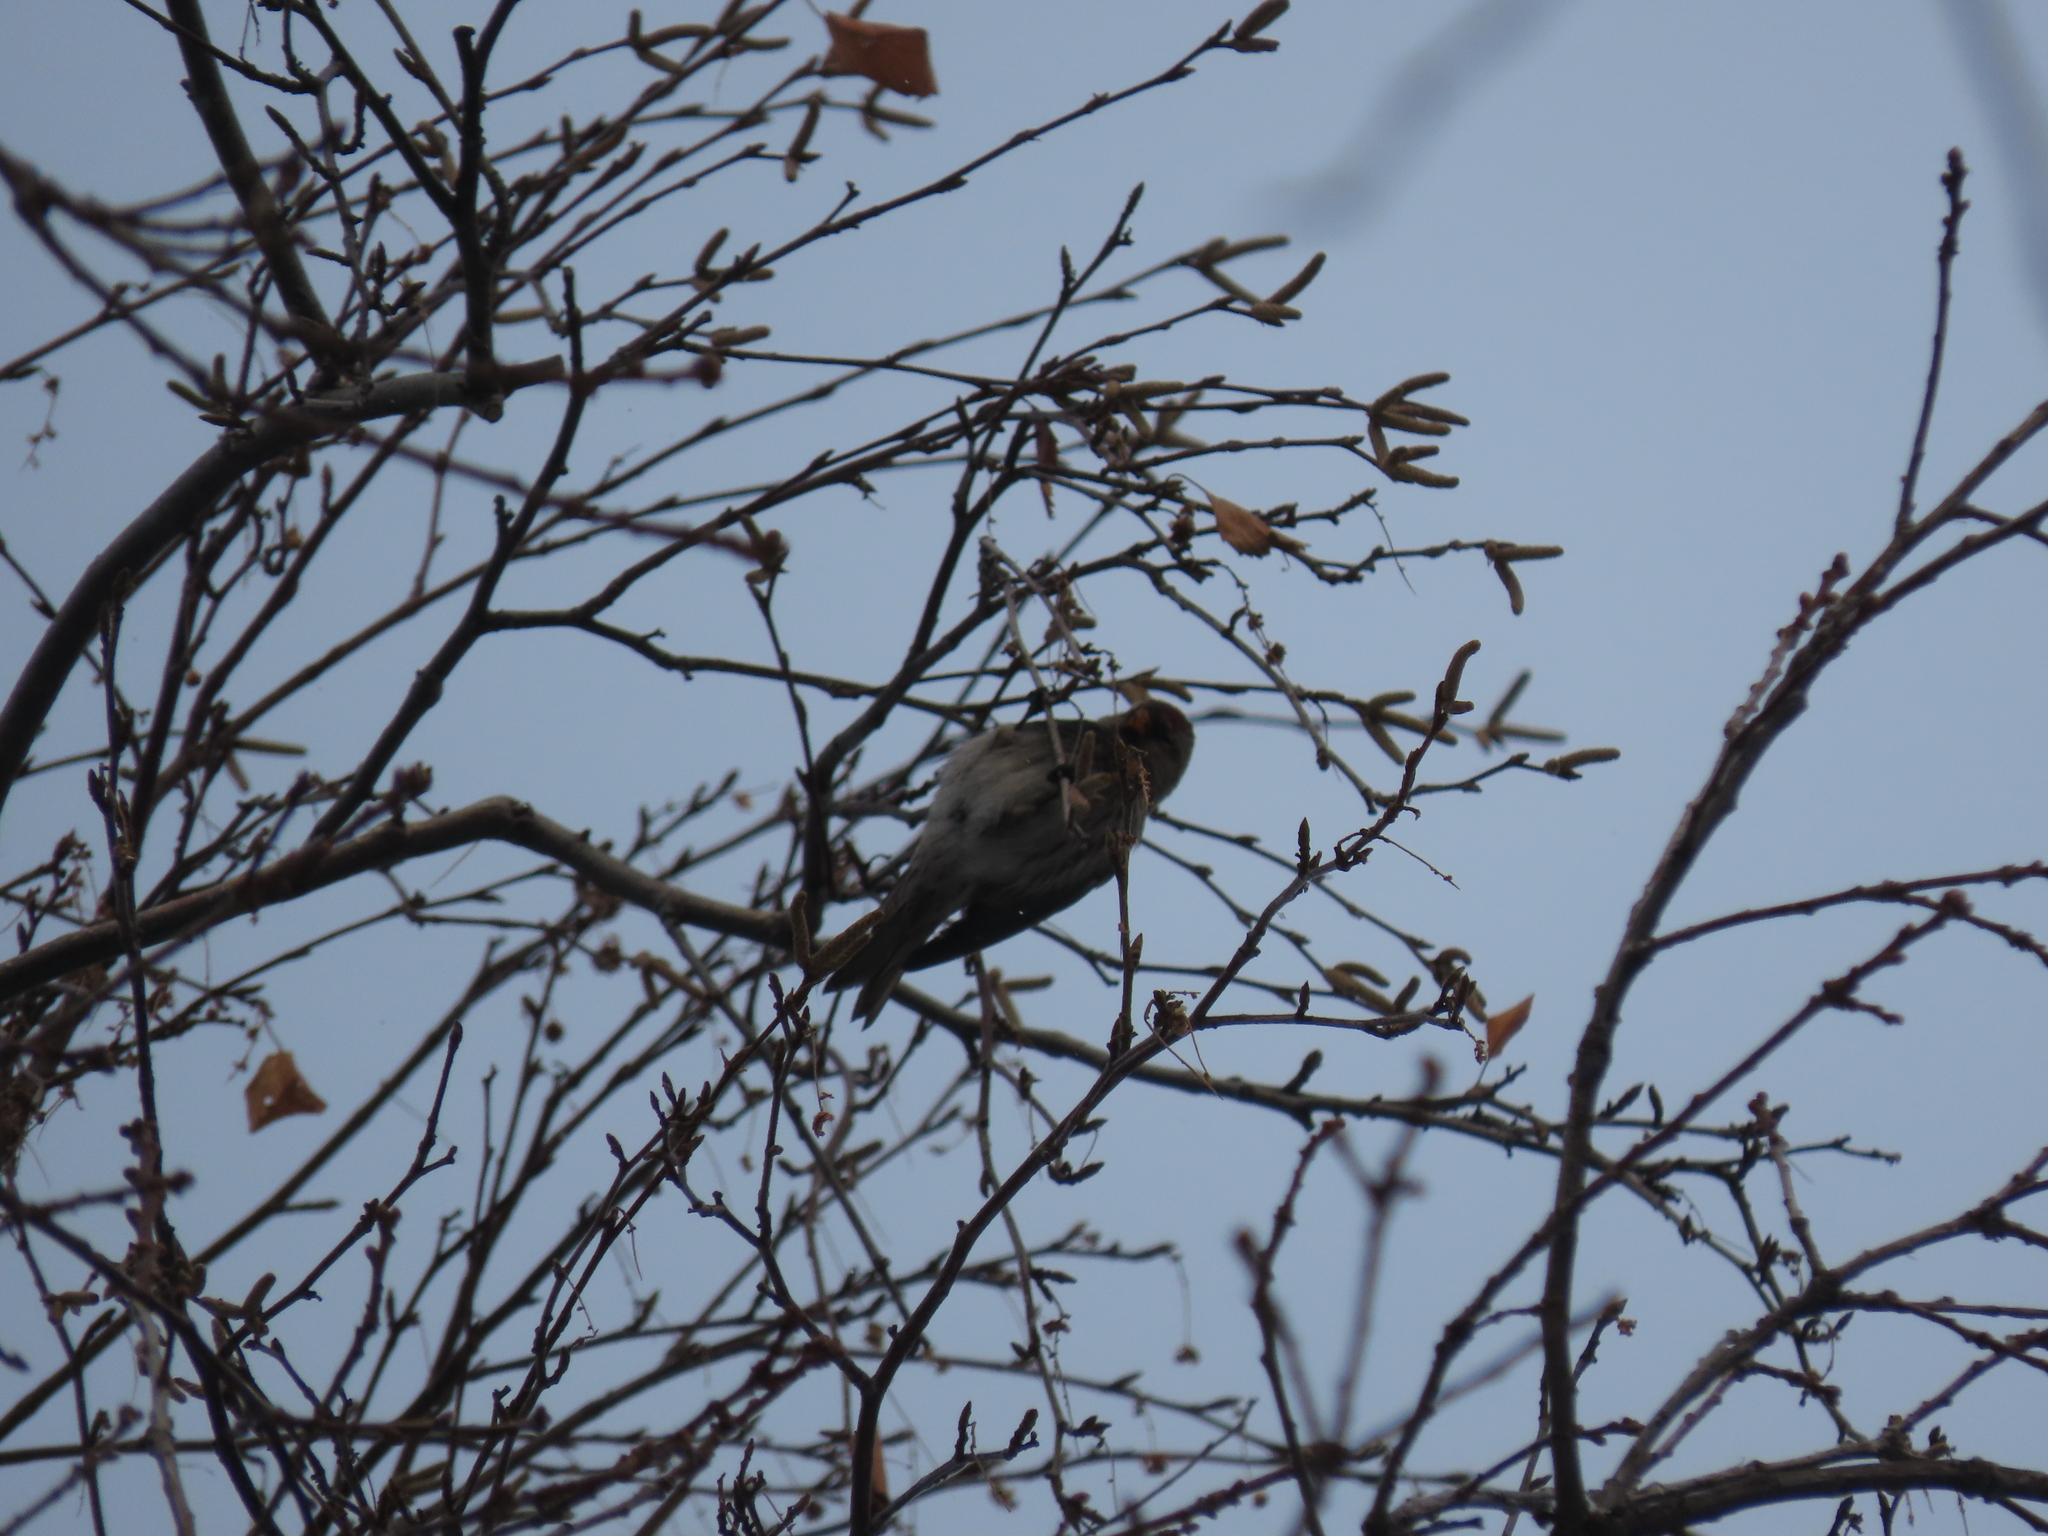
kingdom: Animalia
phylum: Chordata
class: Aves
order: Passeriformes
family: Fringillidae
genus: Acanthis
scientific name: Acanthis flammea
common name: Common redpoll
